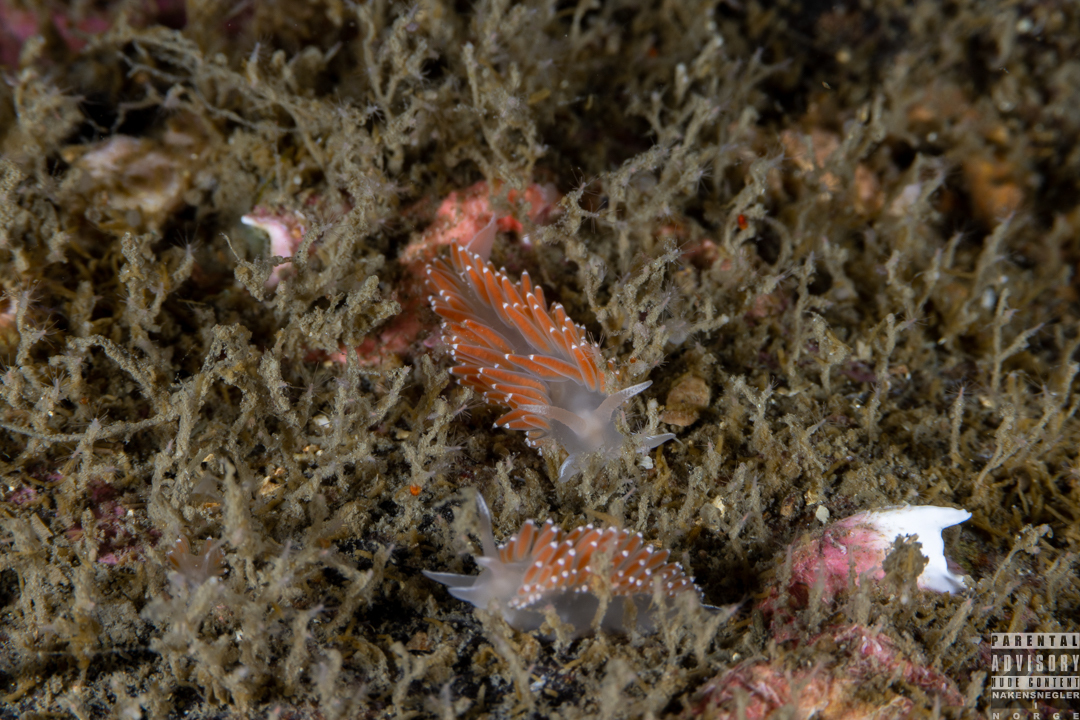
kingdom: Animalia
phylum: Mollusca
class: Gastropoda
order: Nudibranchia
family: Coryphellidae
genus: Coryphella
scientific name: Coryphella verrucosa
